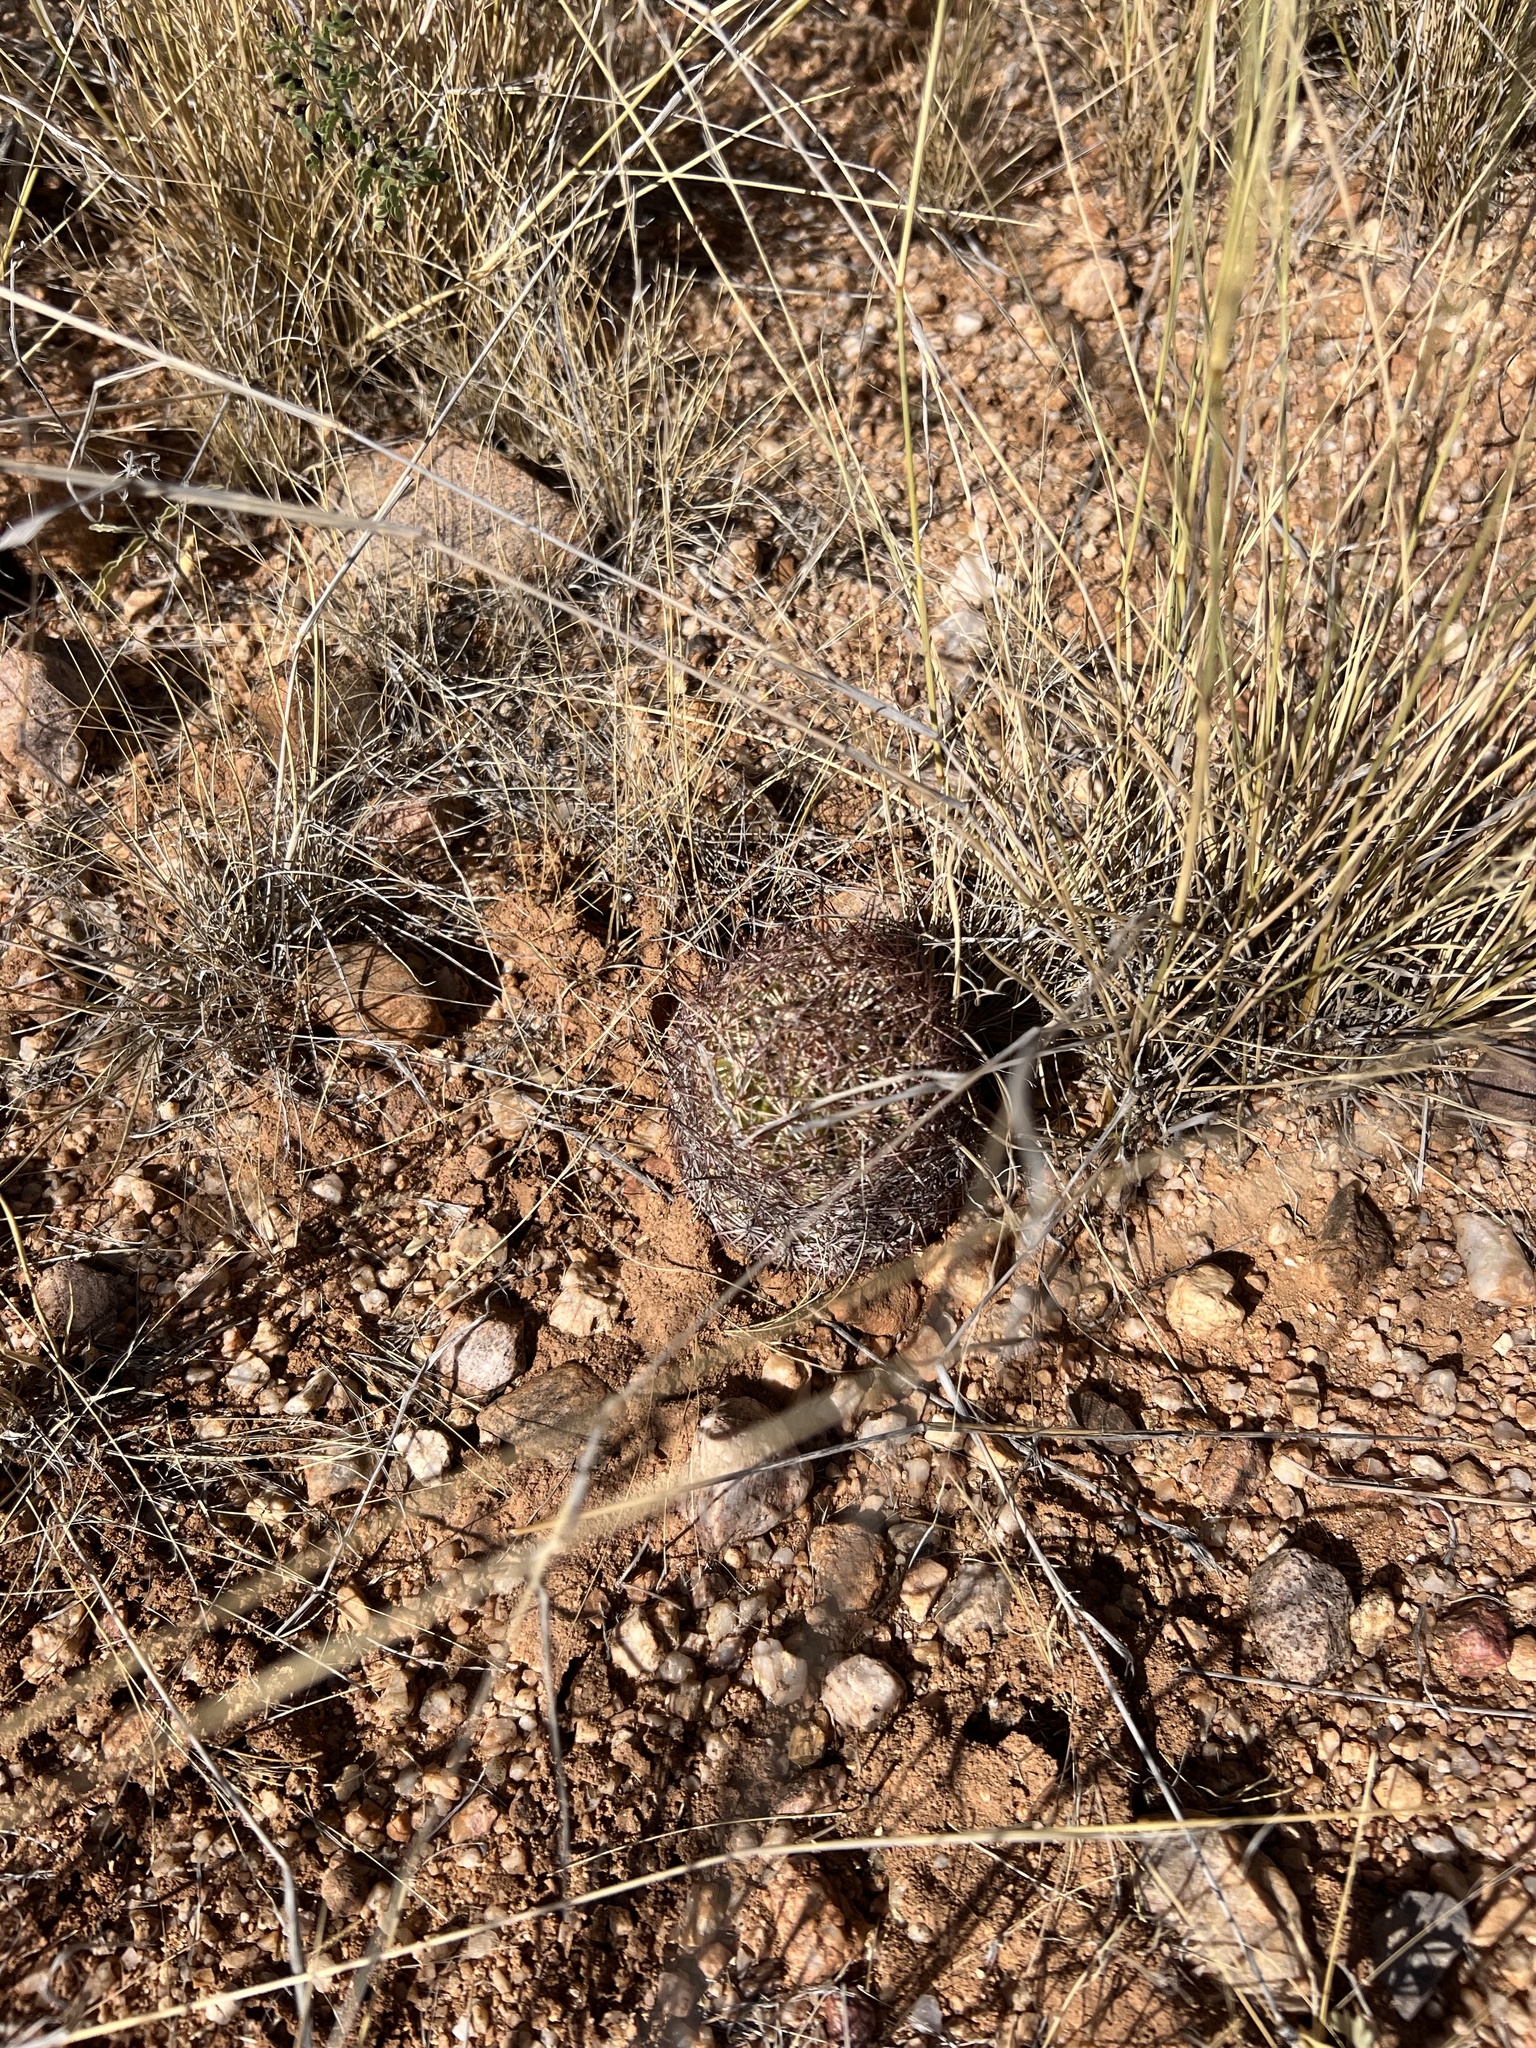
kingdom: Plantae
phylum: Tracheophyta
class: Magnoliopsida
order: Caryophyllales
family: Cactaceae
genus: Sclerocactus
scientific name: Sclerocactus johnsonii
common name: Eight-spine fishhook cactus
